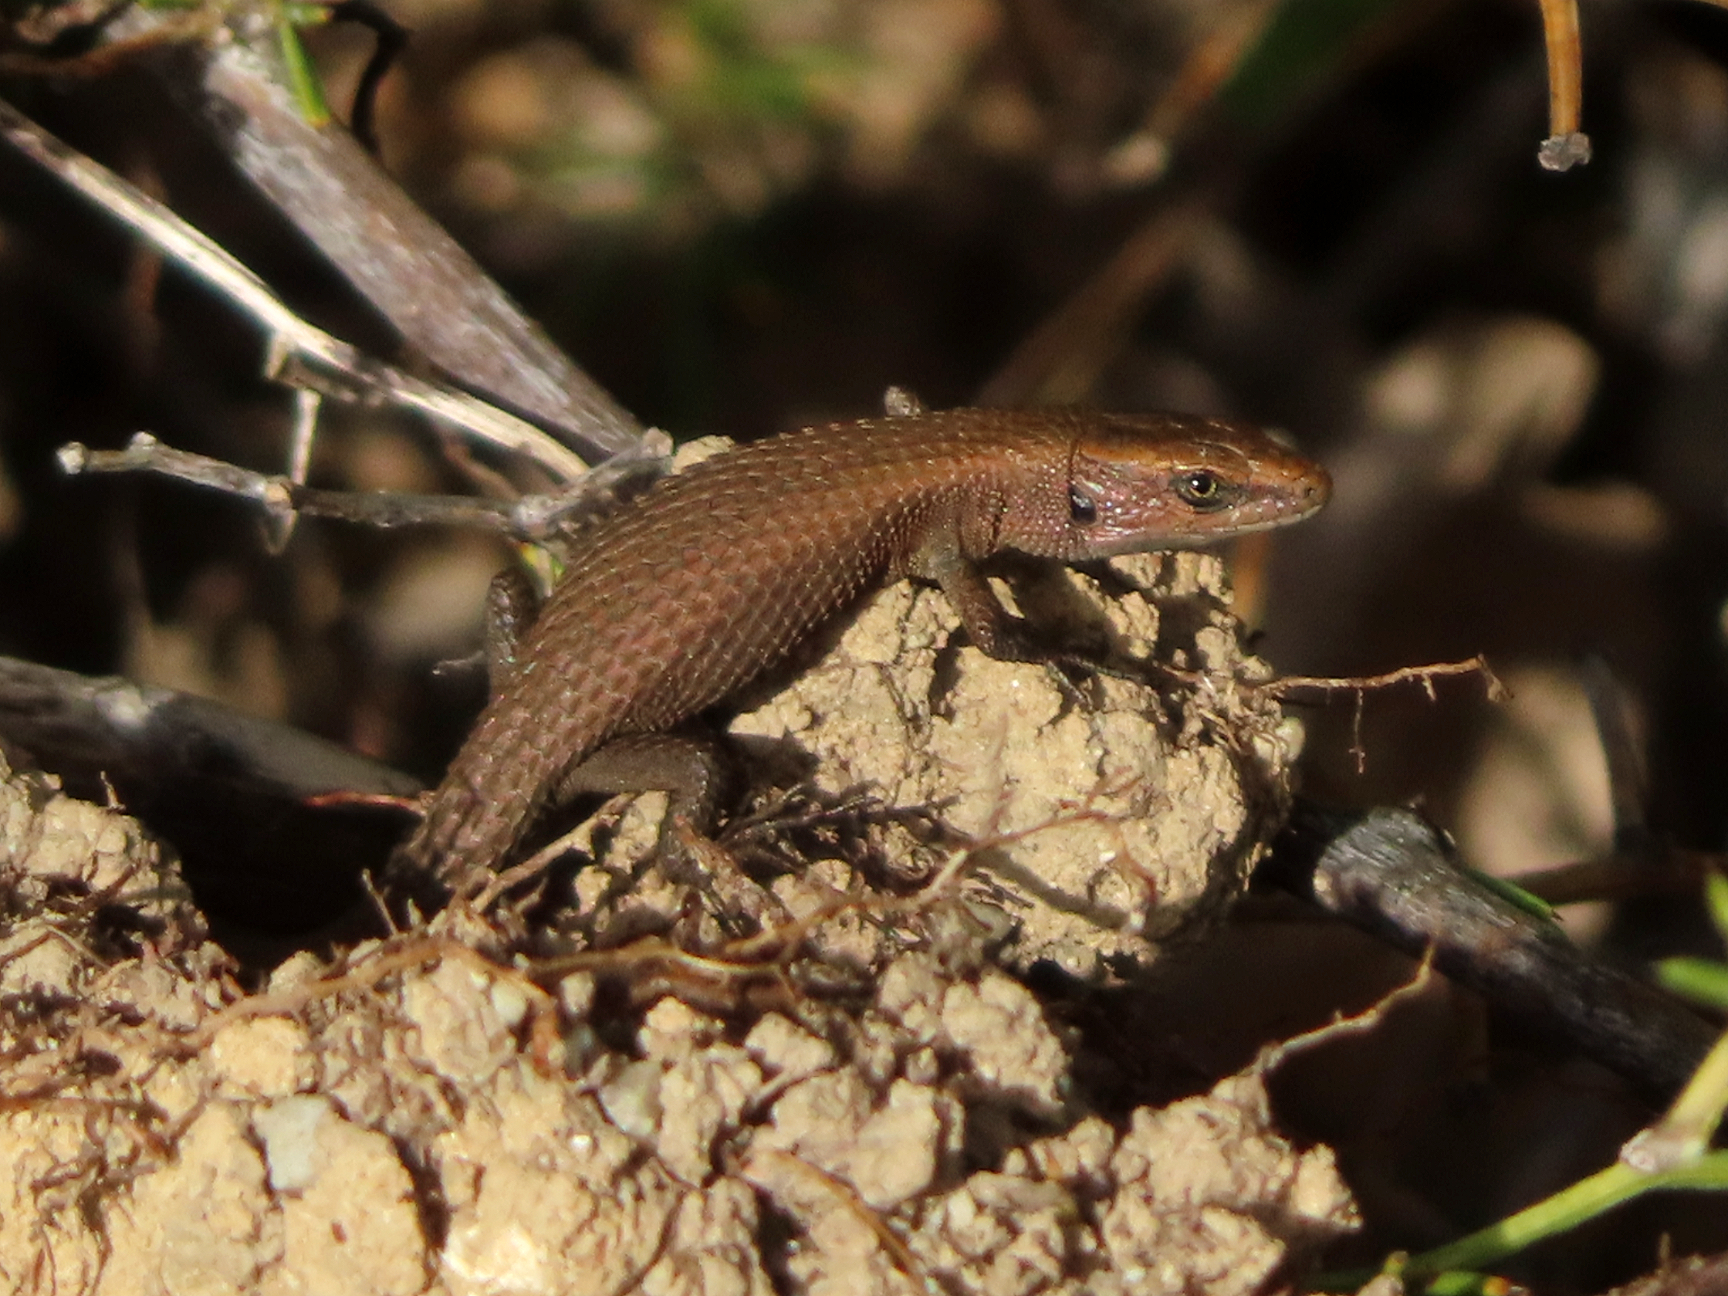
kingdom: Animalia
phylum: Chordata
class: Squamata
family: Lacertidae
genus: Algyroides
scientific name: Algyroides moreoticus
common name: Greek algyroides
